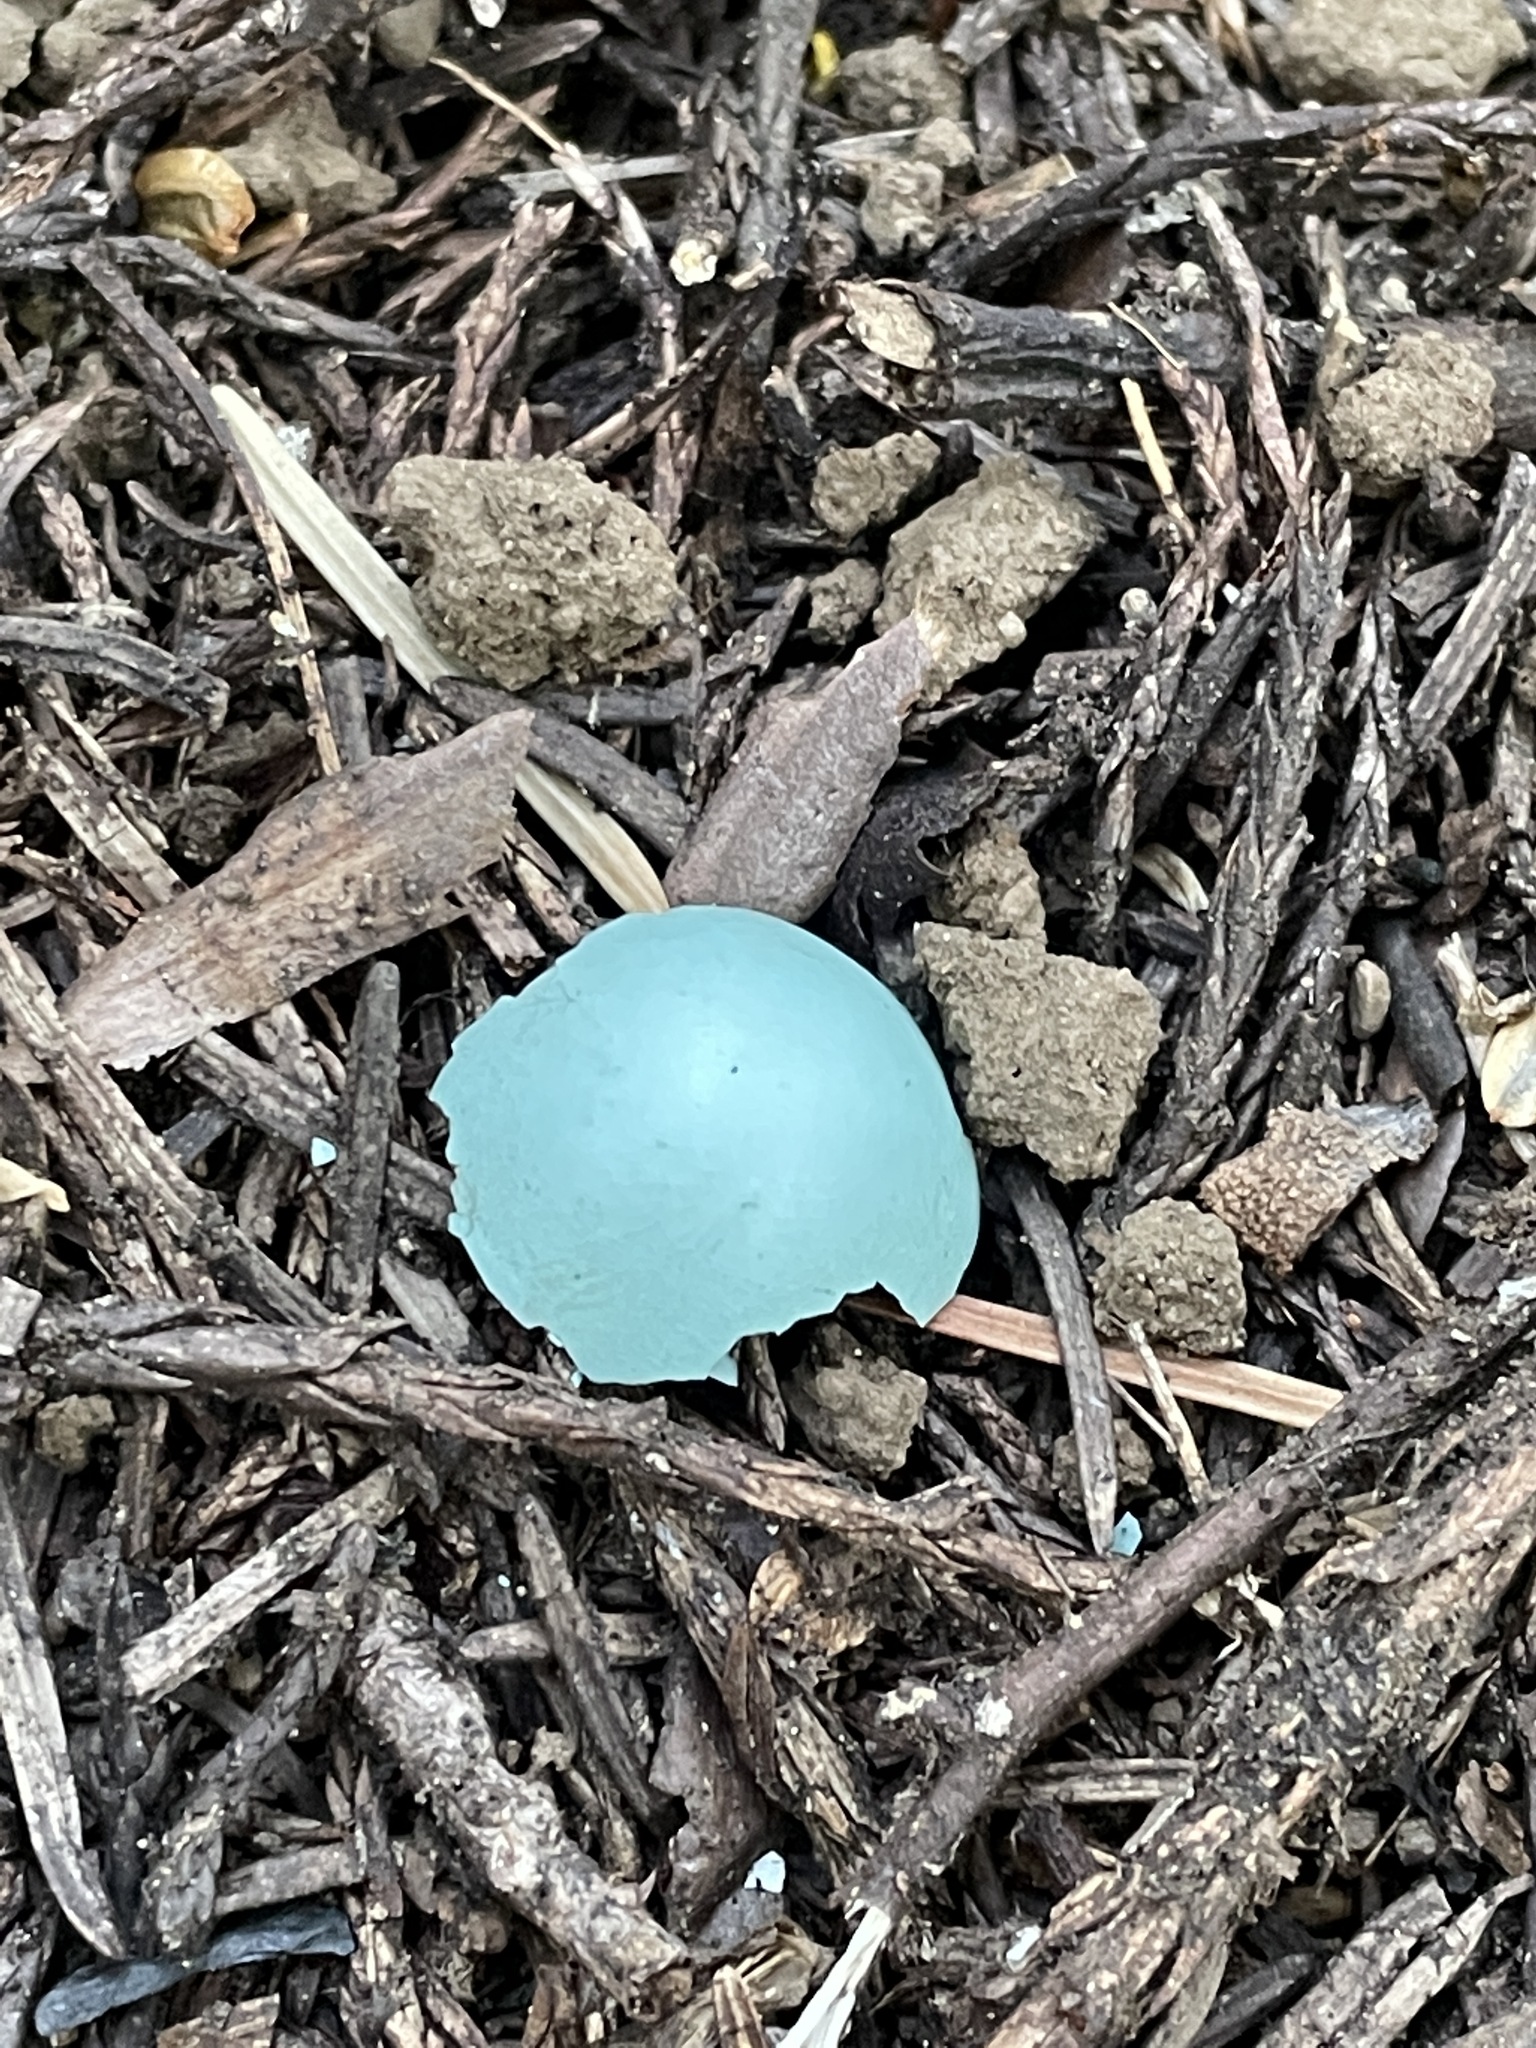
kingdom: Animalia
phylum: Chordata
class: Aves
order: Passeriformes
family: Turdidae
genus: Turdus
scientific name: Turdus migratorius
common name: American robin
